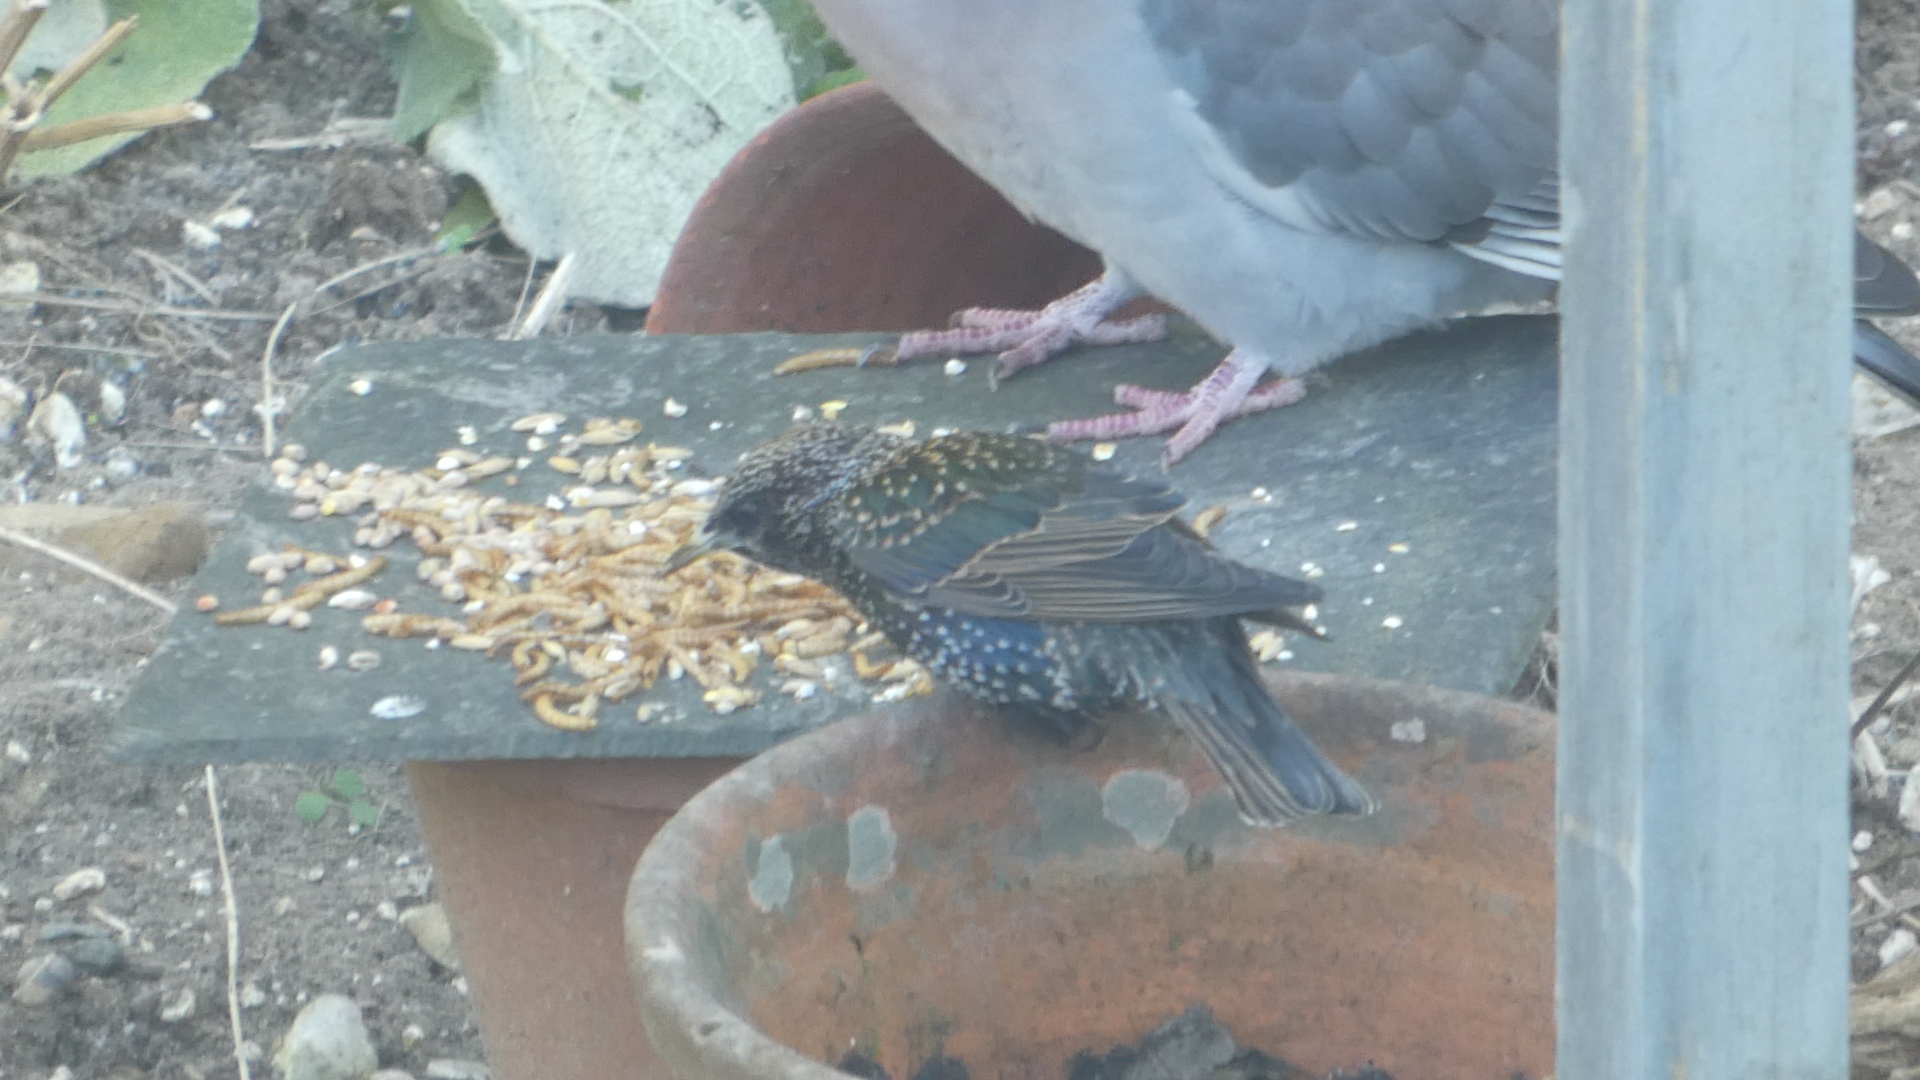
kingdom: Animalia
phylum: Chordata
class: Aves
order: Passeriformes
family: Sturnidae
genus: Sturnus
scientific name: Sturnus vulgaris
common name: Common starling
